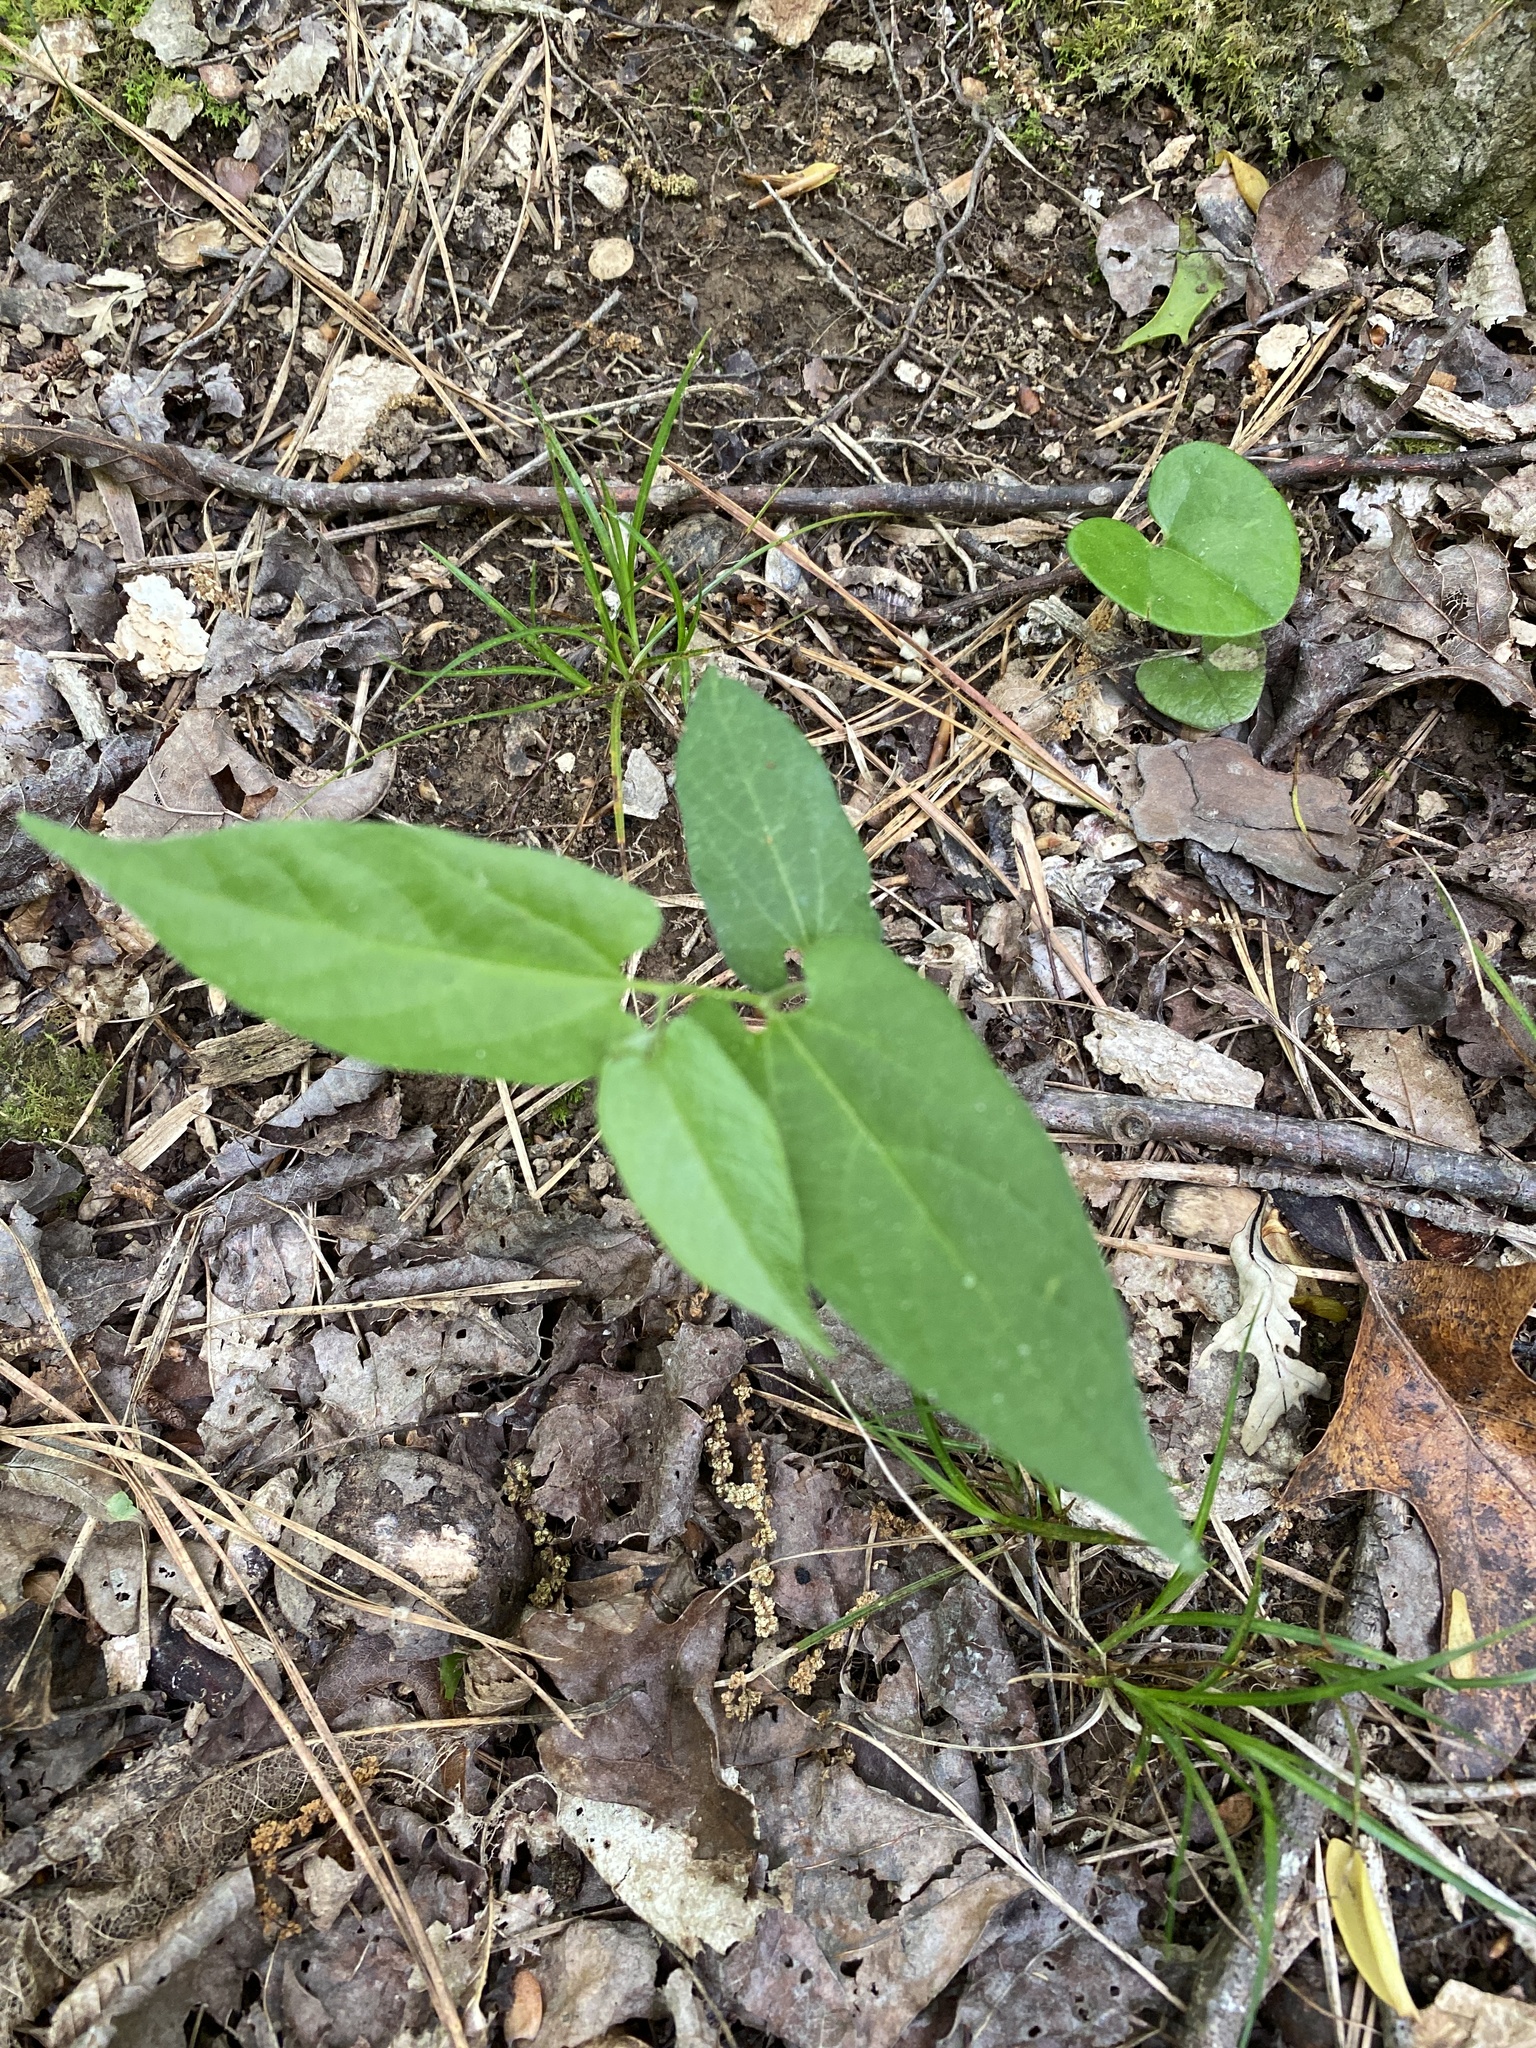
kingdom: Plantae
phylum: Tracheophyta
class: Magnoliopsida
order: Piperales
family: Aristolochiaceae
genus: Endodeca
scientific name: Endodeca serpentaria
